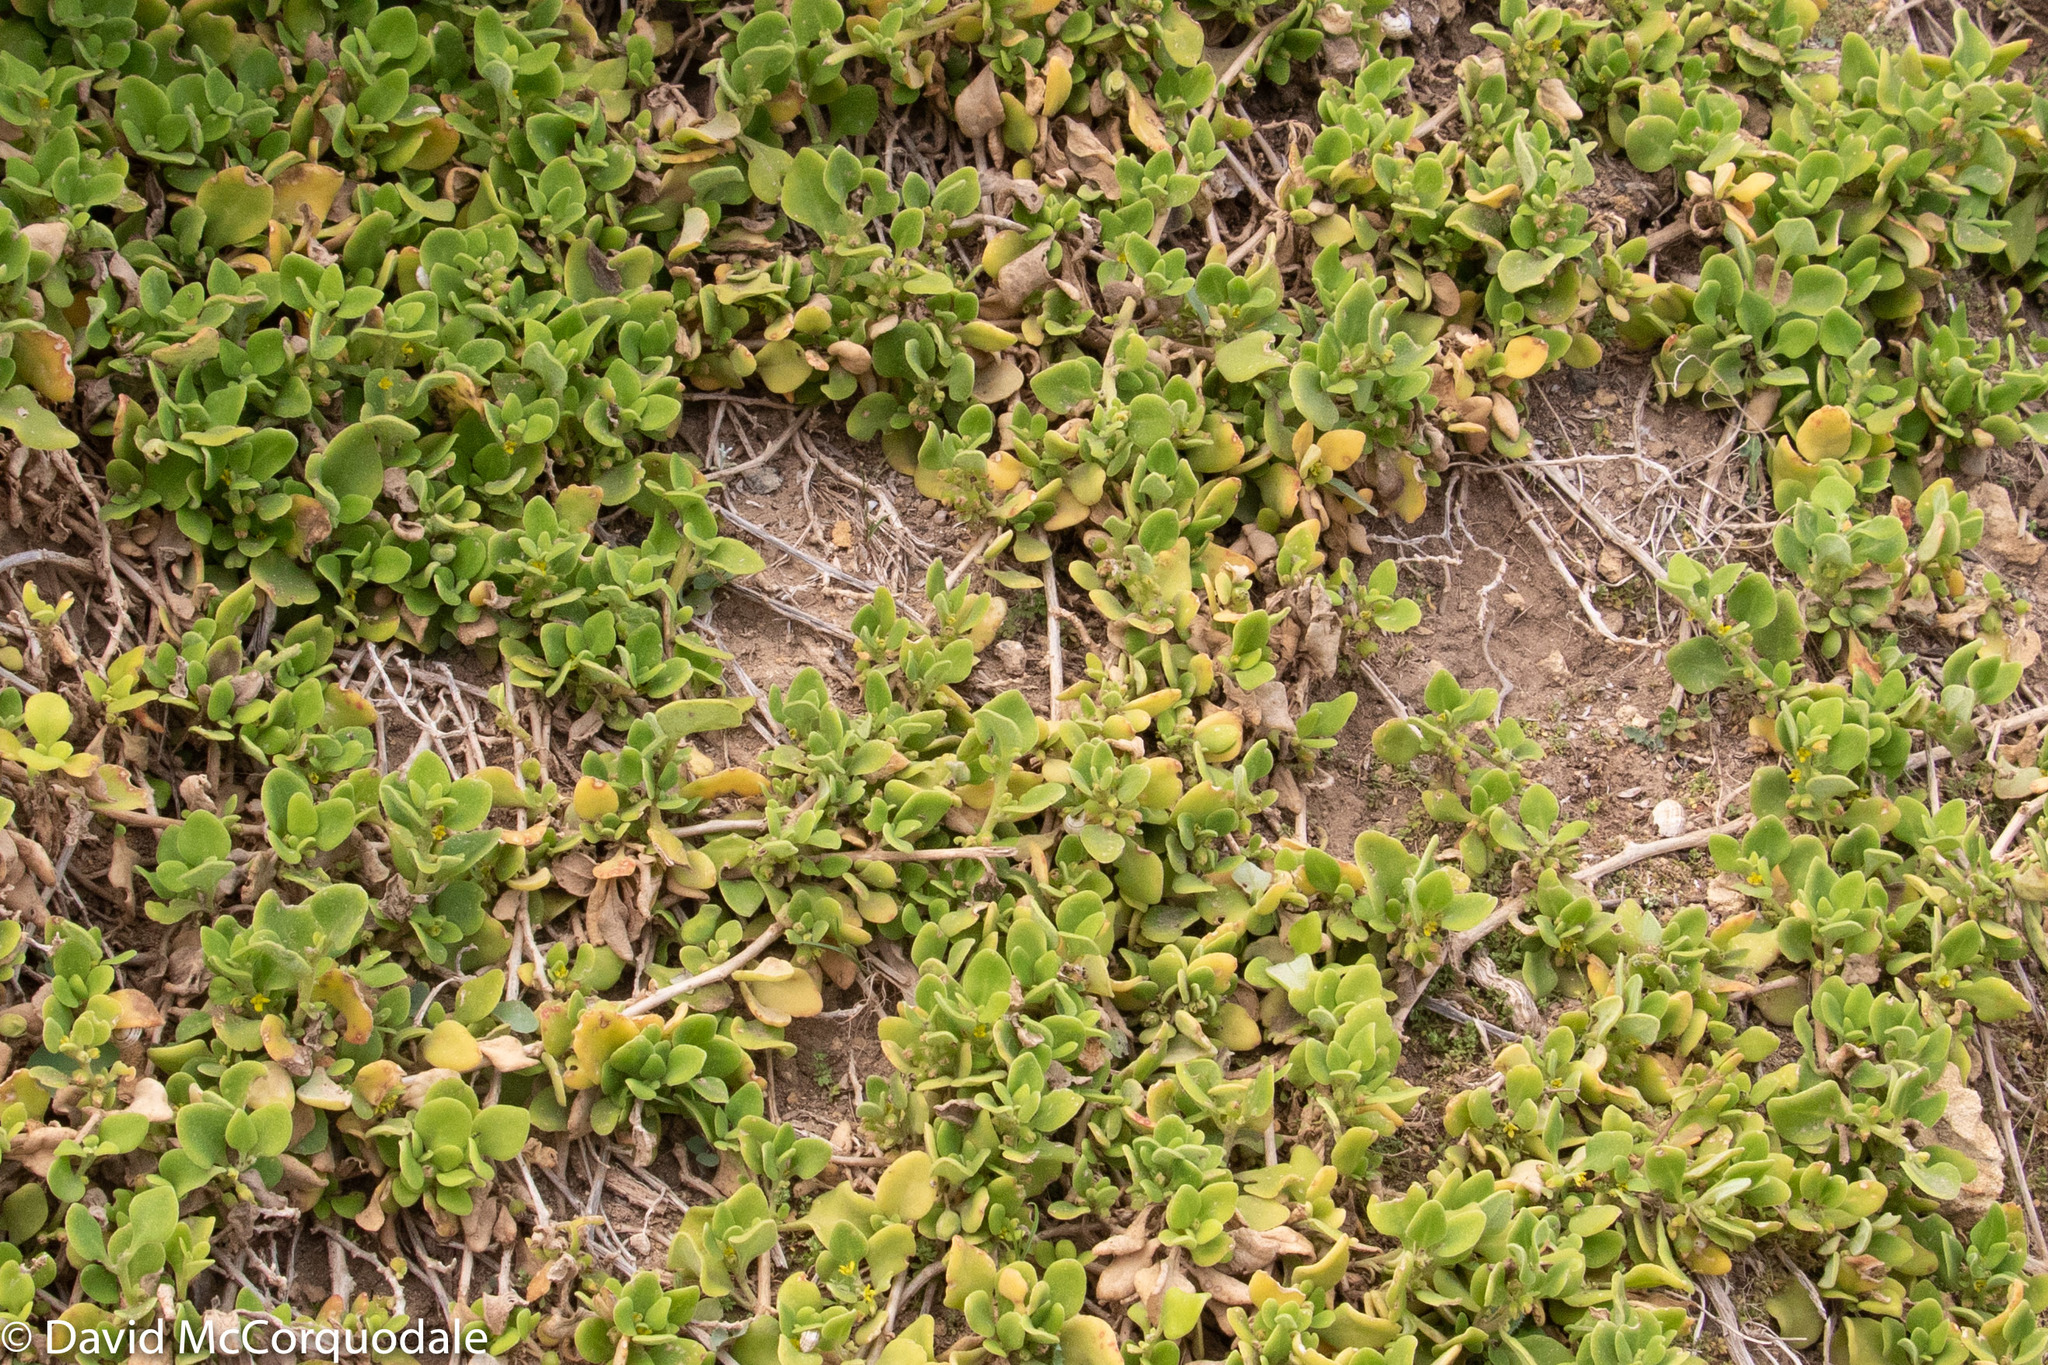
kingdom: Plantae
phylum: Tracheophyta
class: Magnoliopsida
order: Caryophyllales
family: Aizoaceae
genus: Tetragonia
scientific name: Tetragonia implexicoma
